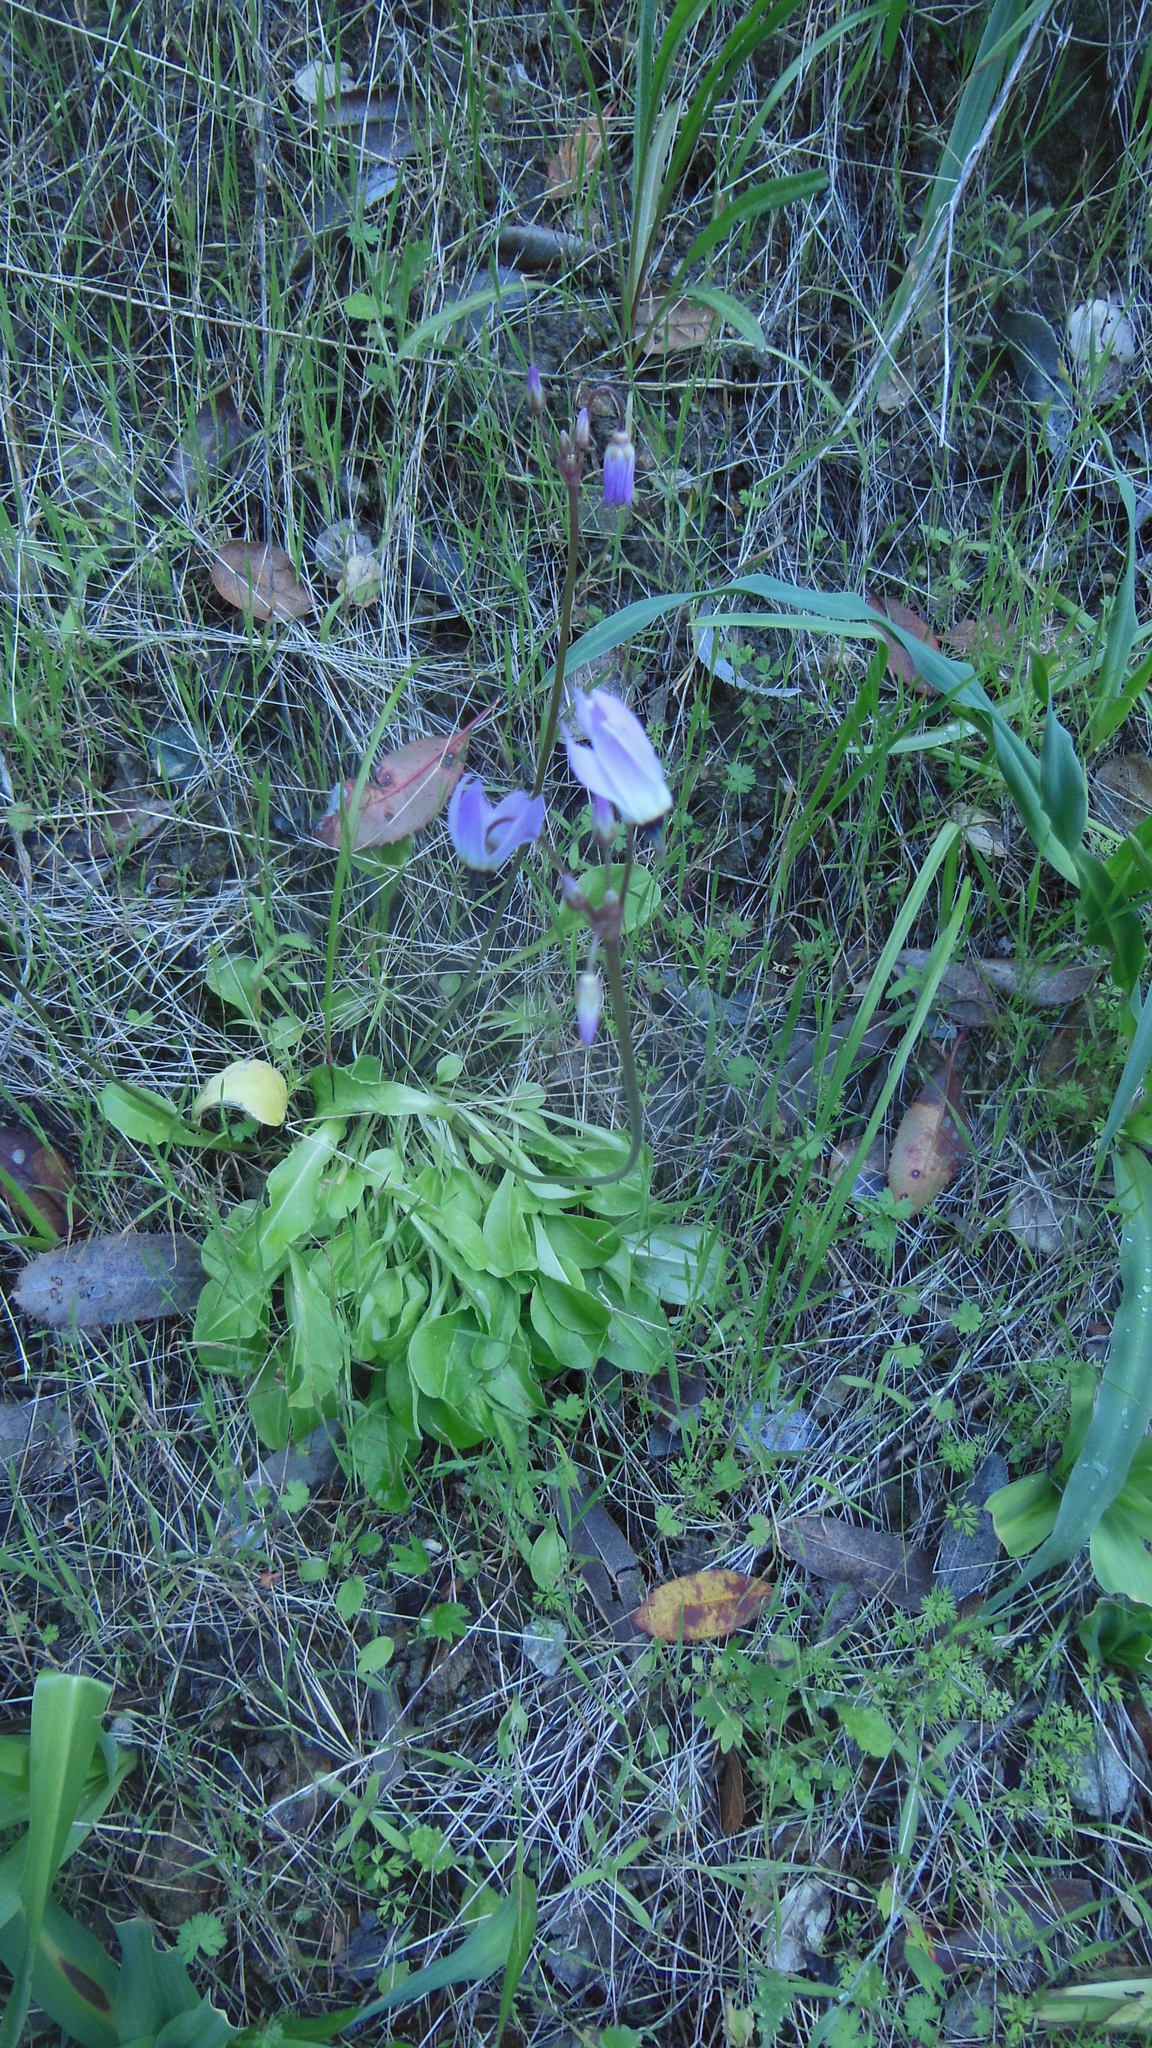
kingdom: Plantae
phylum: Tracheophyta
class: Magnoliopsida
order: Ericales
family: Primulaceae
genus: Dodecatheon
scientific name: Dodecatheon hendersonii
